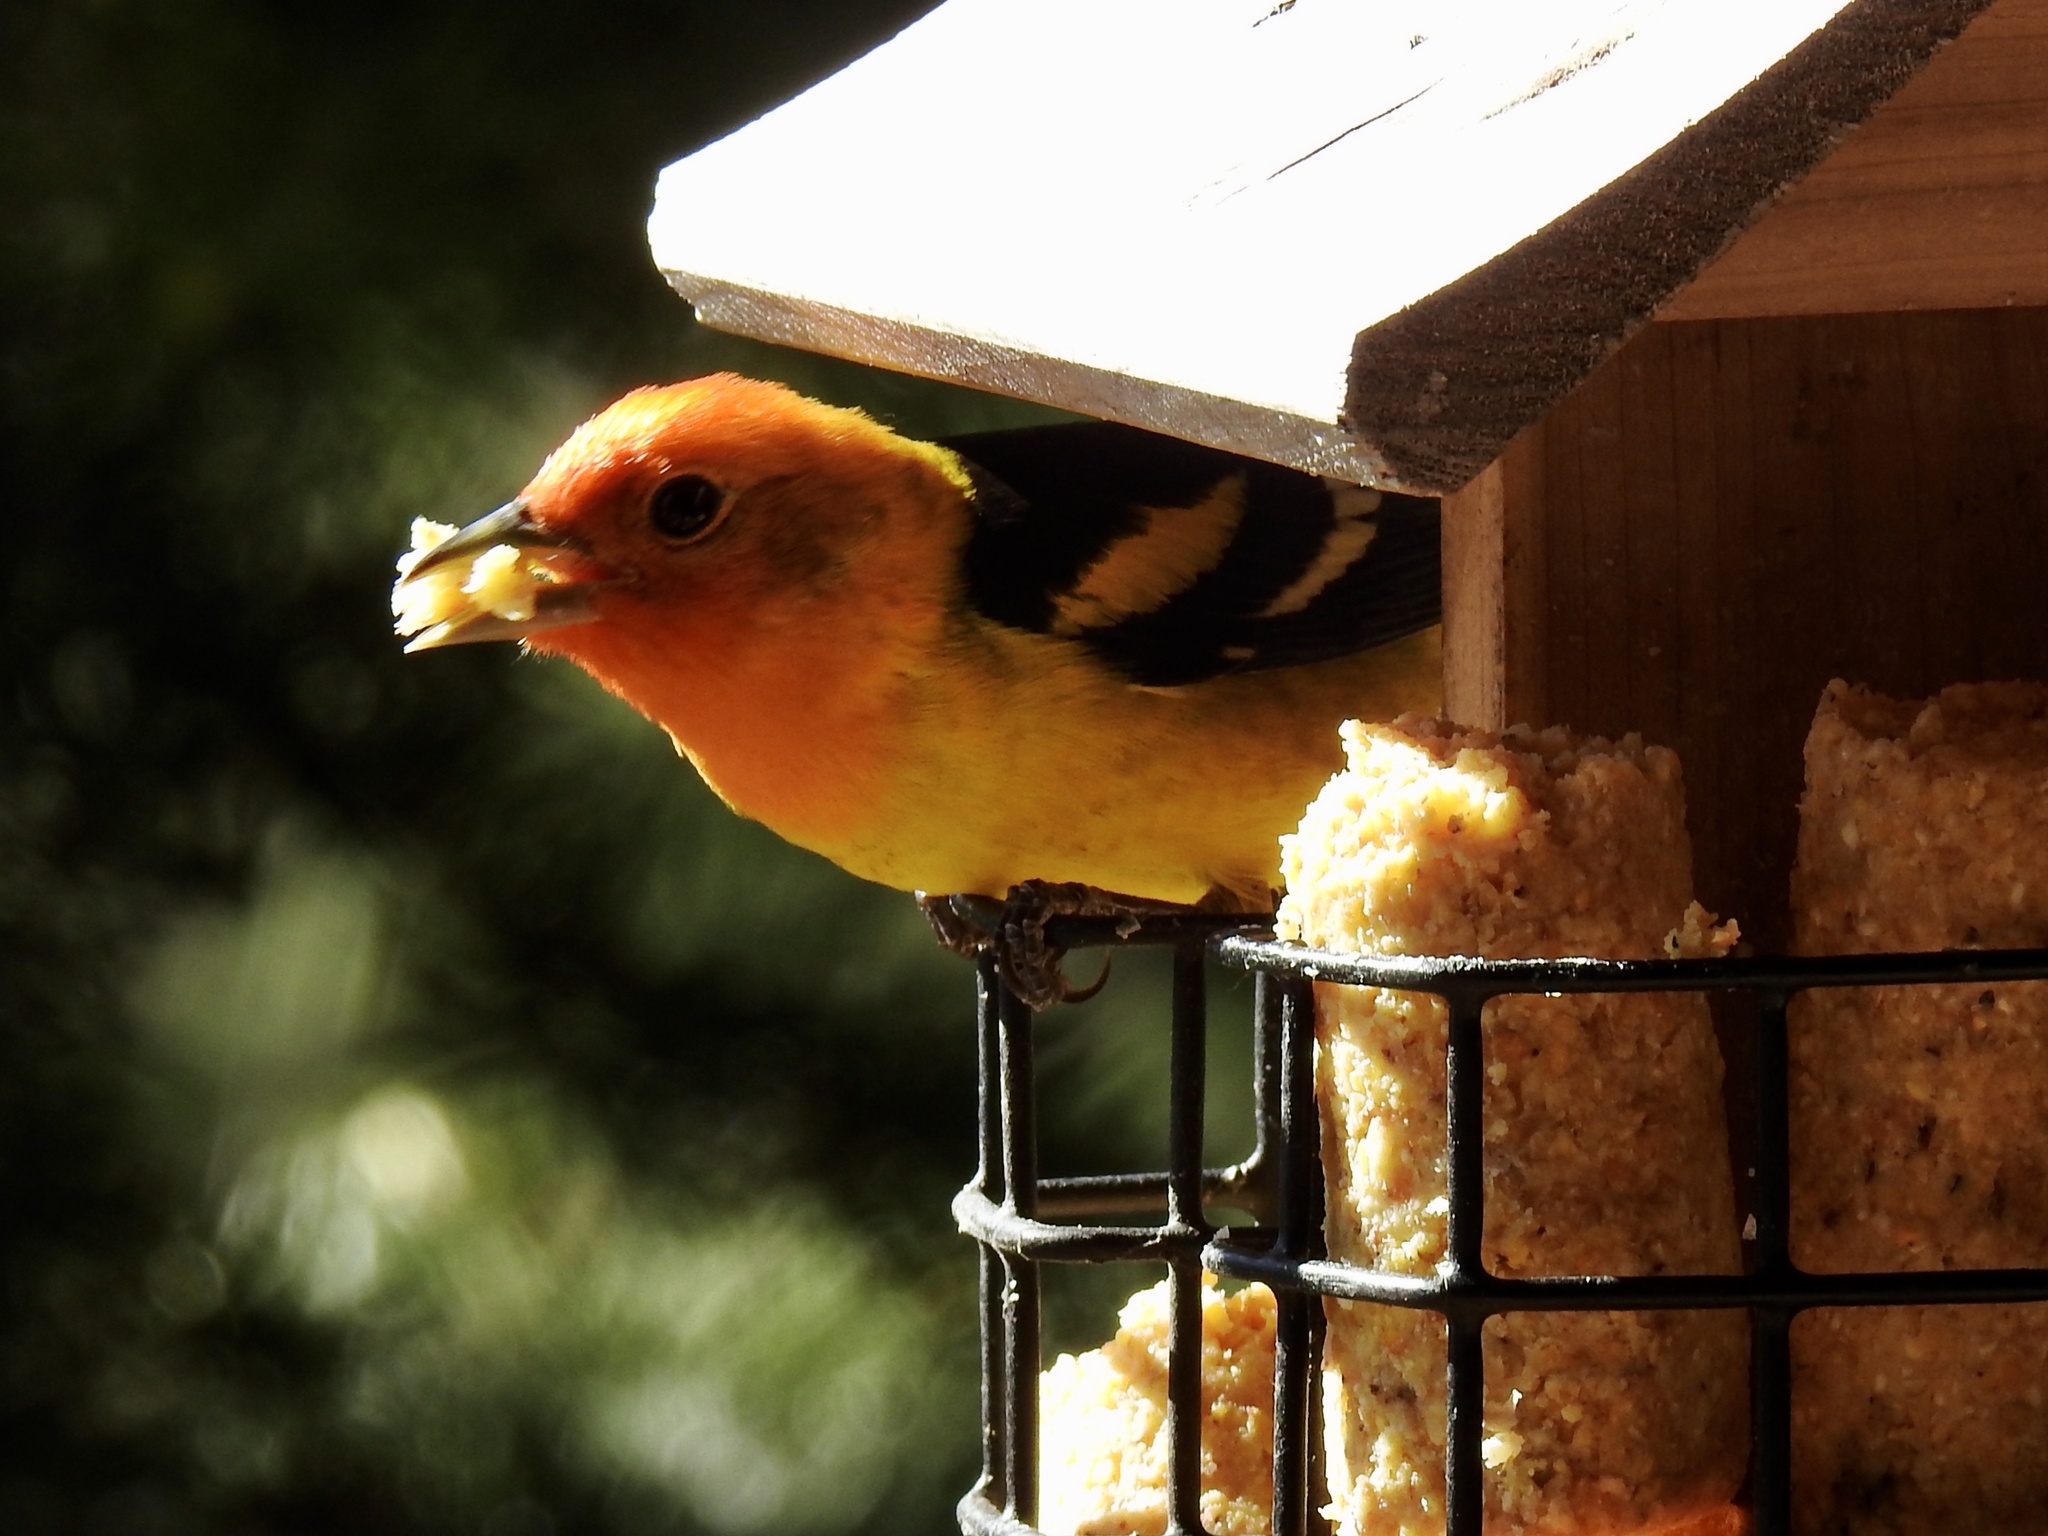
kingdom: Animalia
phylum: Chordata
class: Aves
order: Passeriformes
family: Cardinalidae
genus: Piranga
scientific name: Piranga ludoviciana
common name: Western tanager
